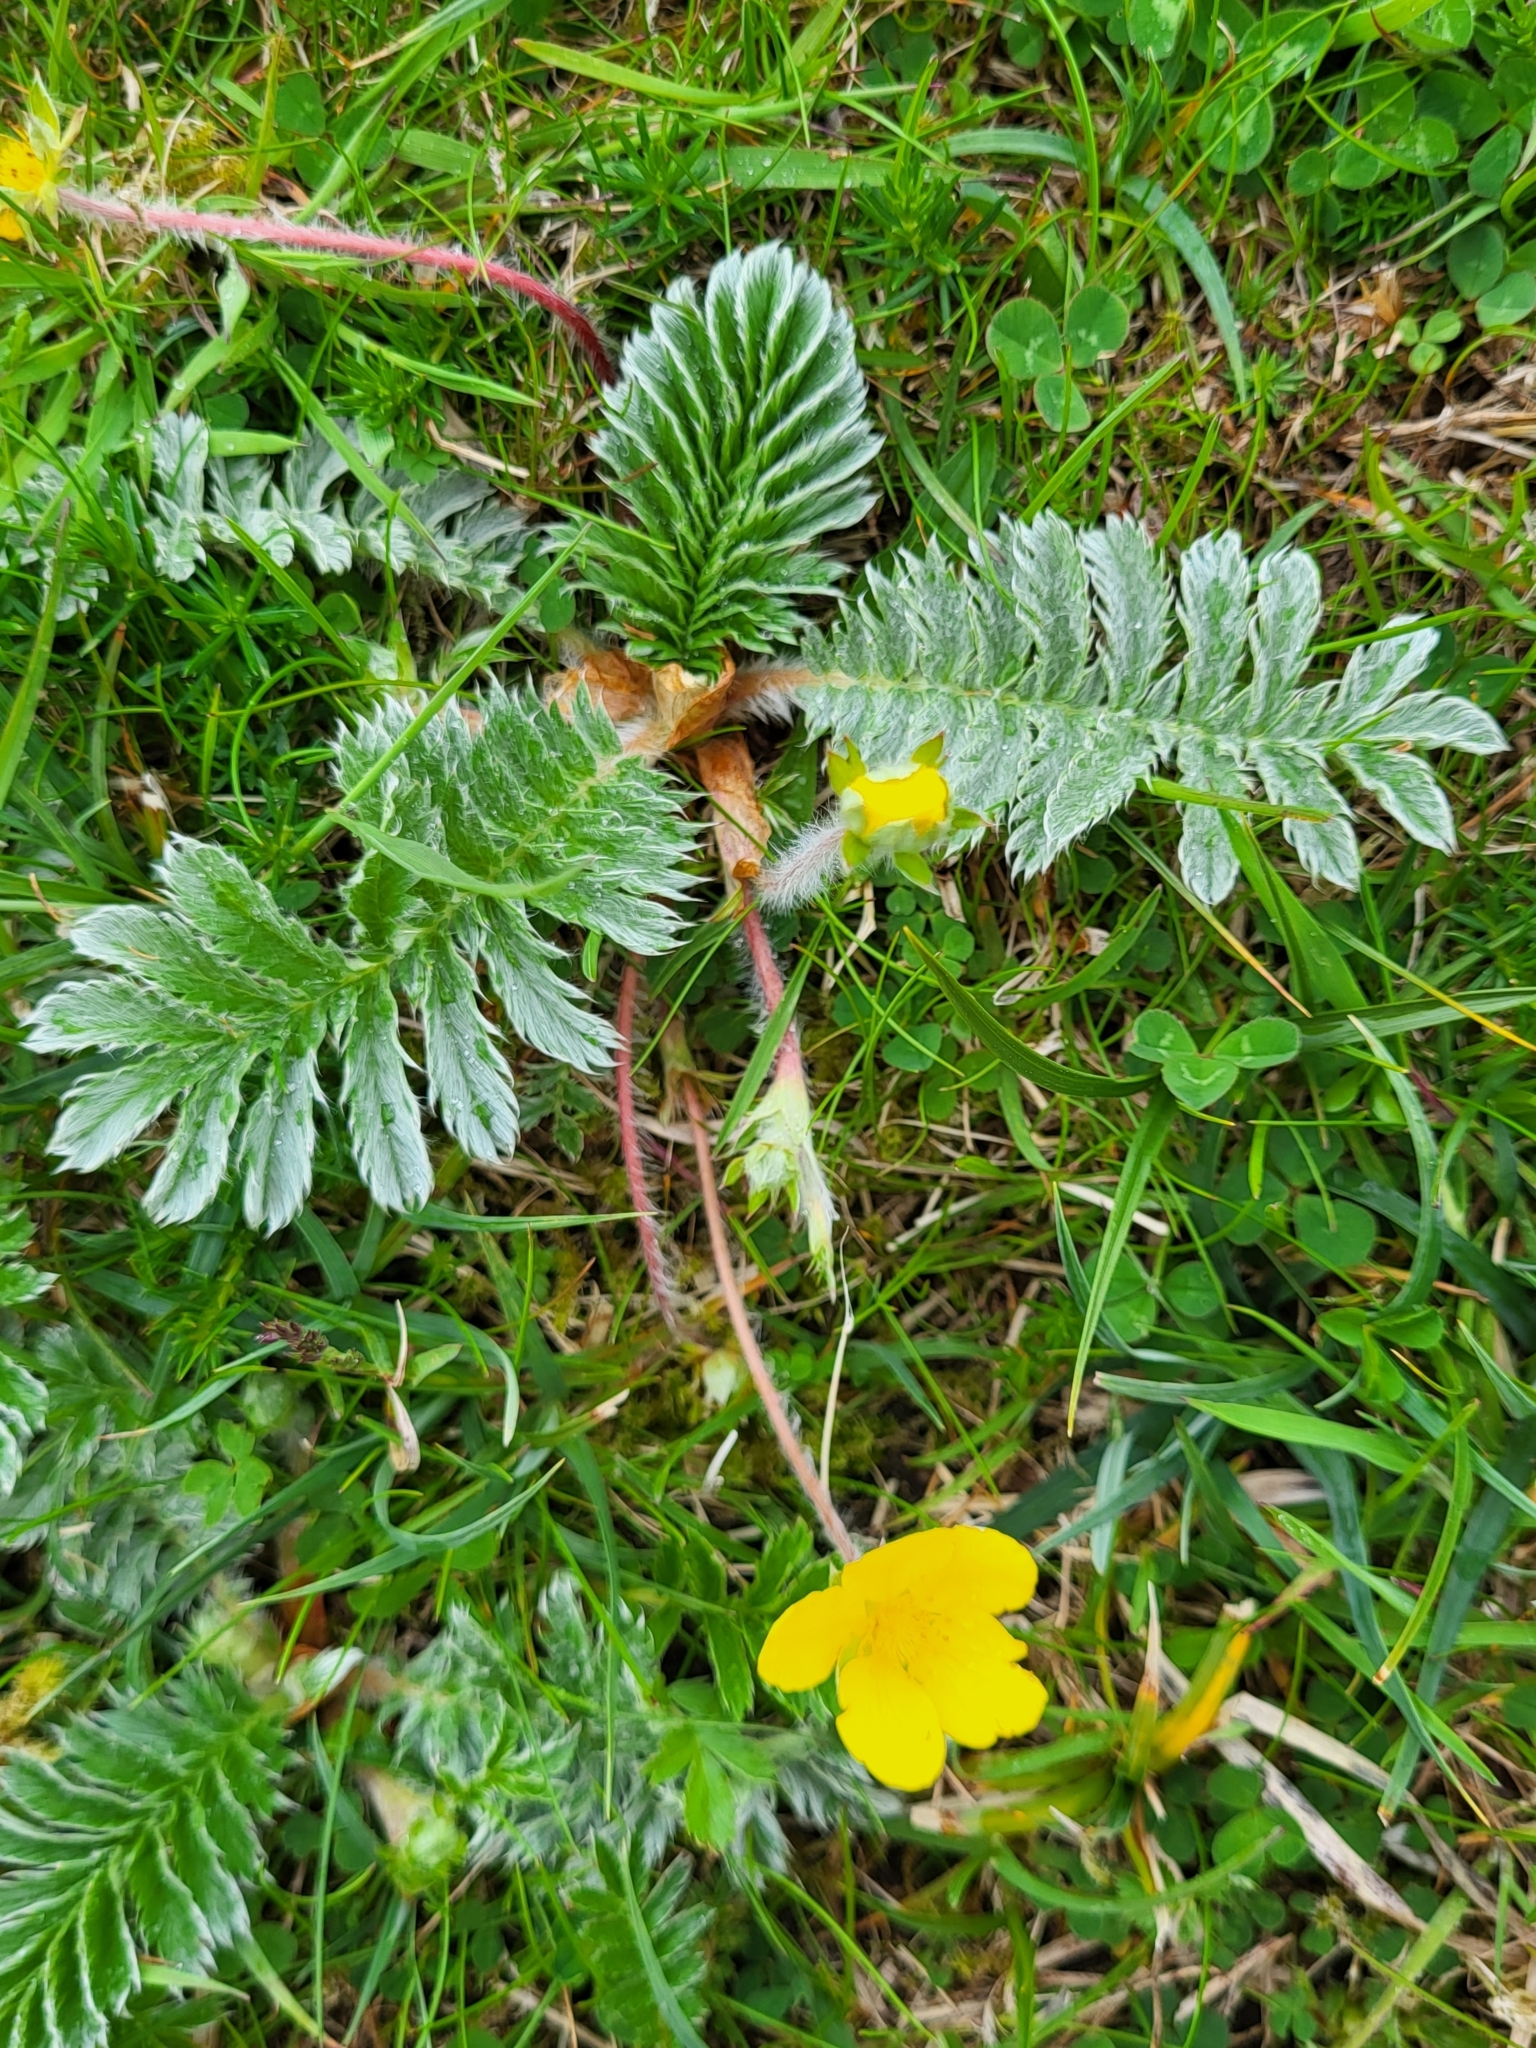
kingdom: Plantae
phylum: Tracheophyta
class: Magnoliopsida
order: Rosales
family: Rosaceae
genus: Argentina
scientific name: Argentina anserina
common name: Common silverweed
